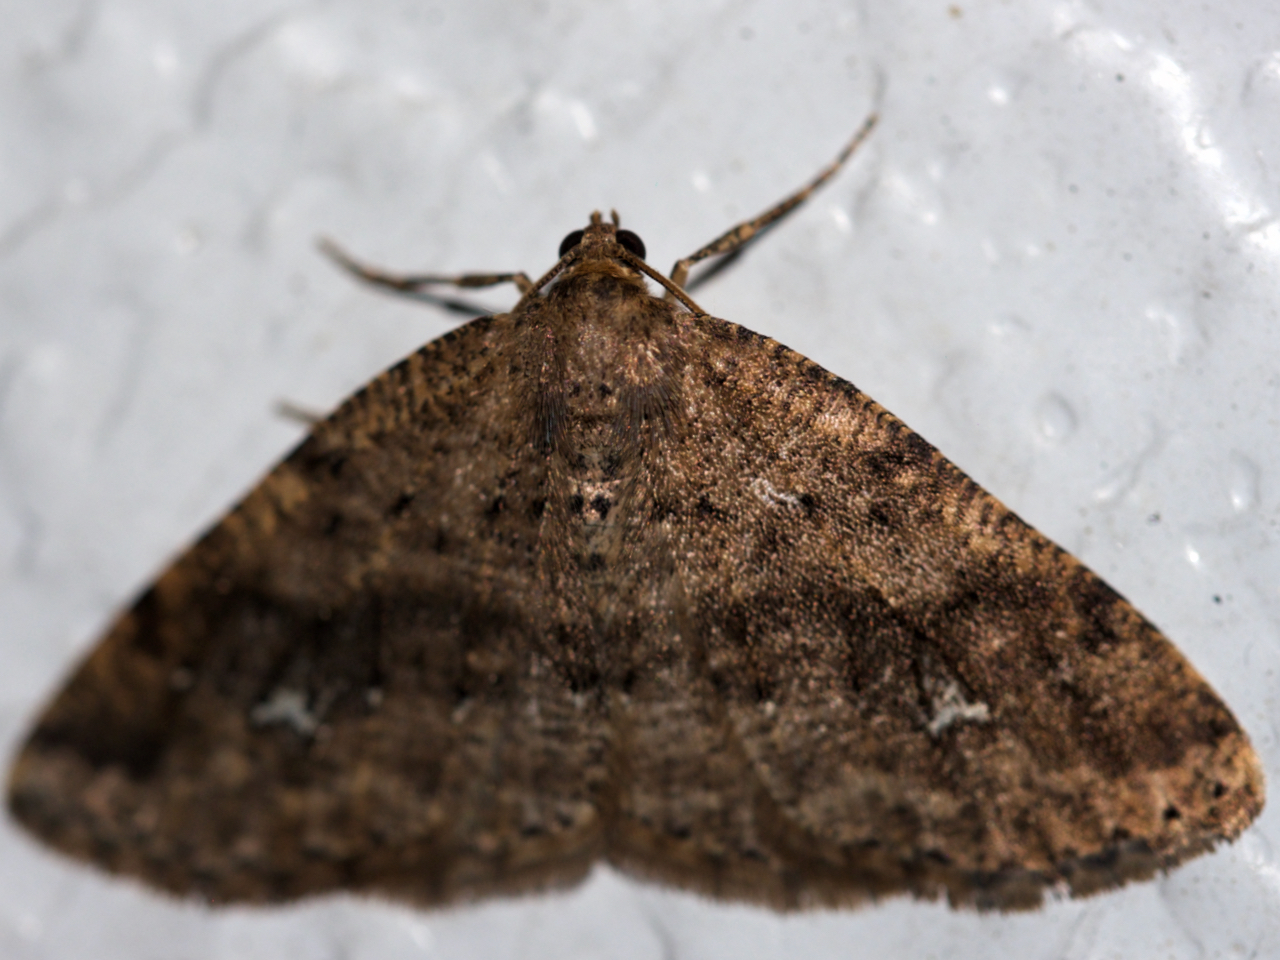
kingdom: Animalia
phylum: Arthropoda
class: Insecta
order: Lepidoptera
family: Geometridae
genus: Homochlodes
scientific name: Homochlodes fritillaria
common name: Pale homochlodes
